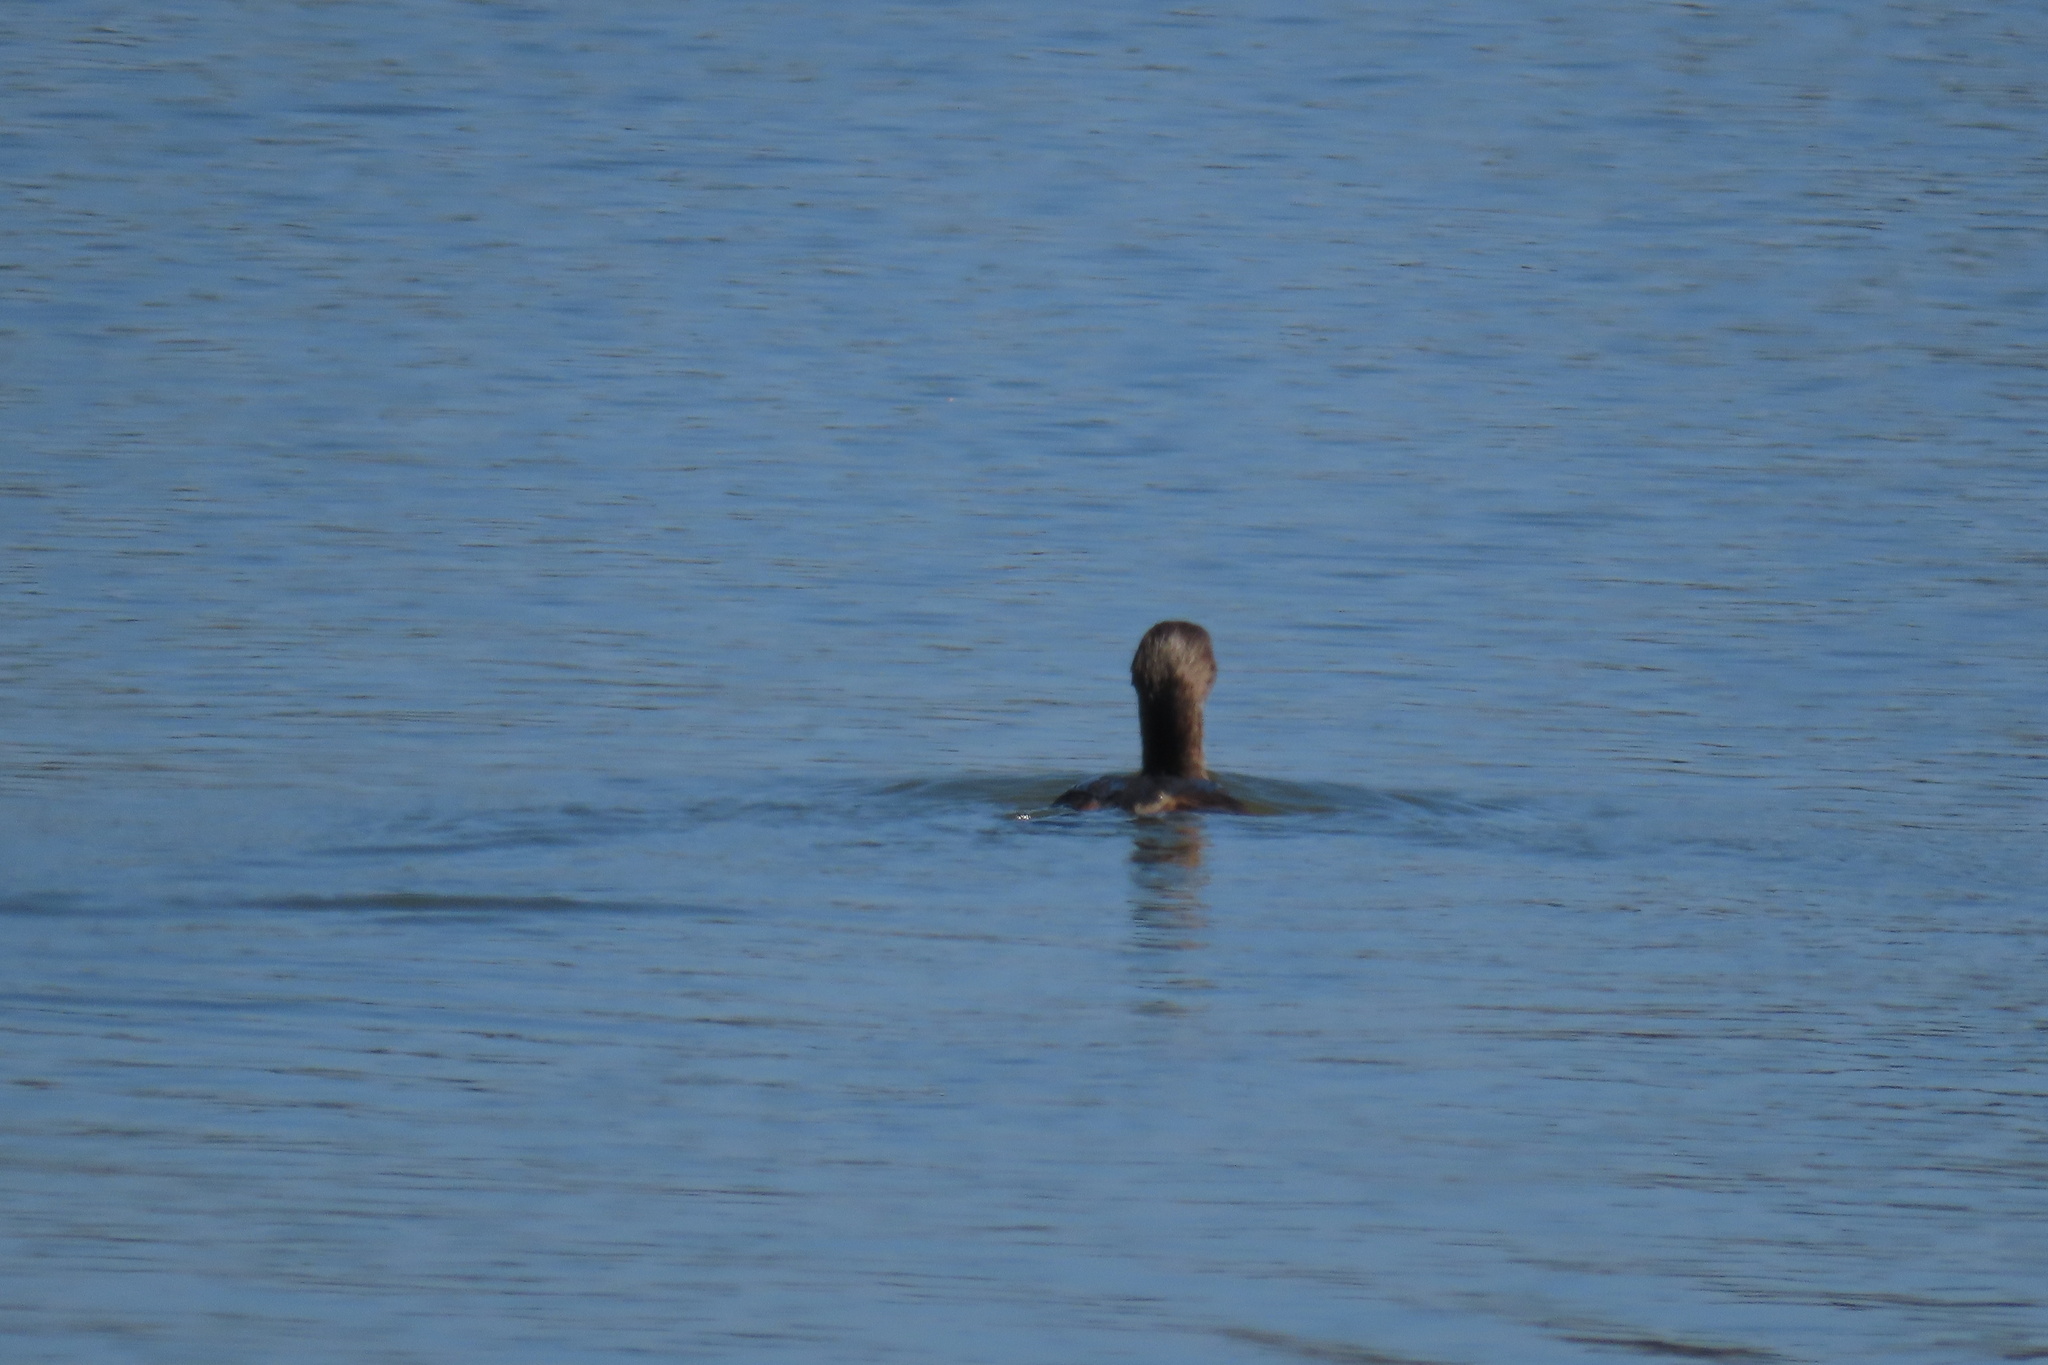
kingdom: Animalia
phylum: Chordata
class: Aves
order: Podicipediformes
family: Podicipedidae
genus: Podilymbus
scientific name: Podilymbus podiceps
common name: Pied-billed grebe
